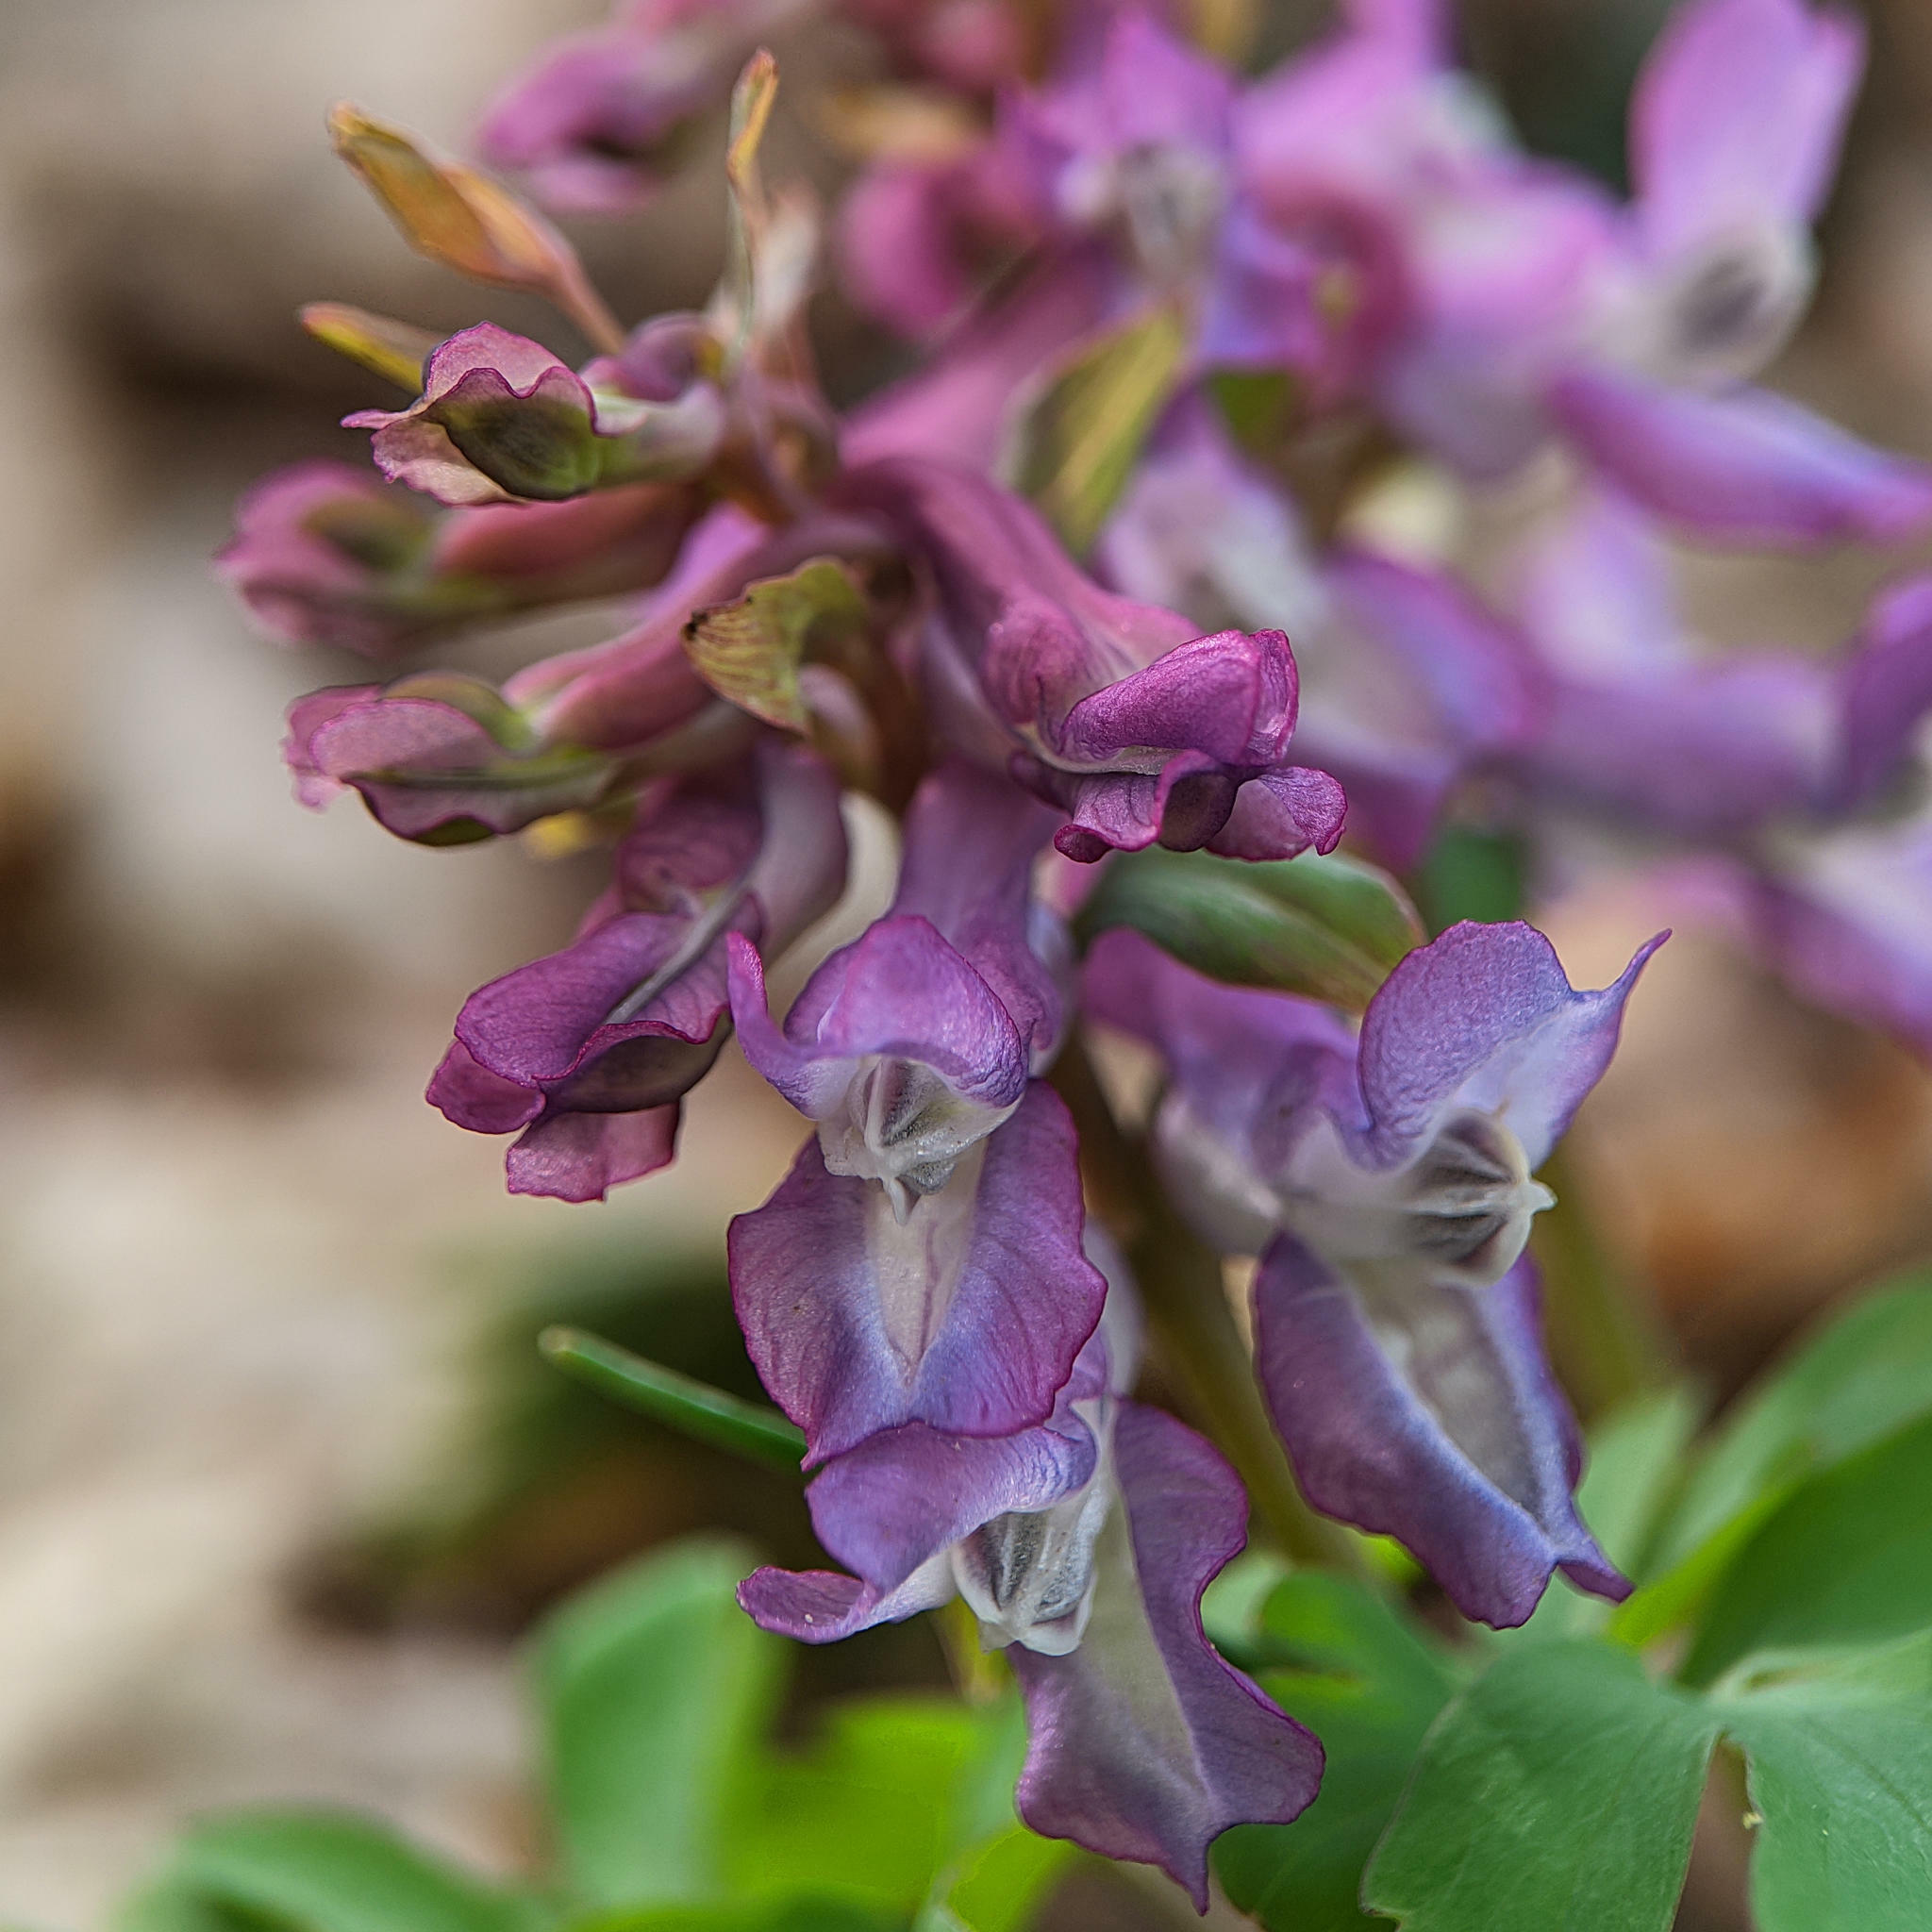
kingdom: Plantae
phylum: Tracheophyta
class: Magnoliopsida
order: Ranunculales
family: Papaveraceae
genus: Corydalis
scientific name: Corydalis cava
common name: Hollowroot
